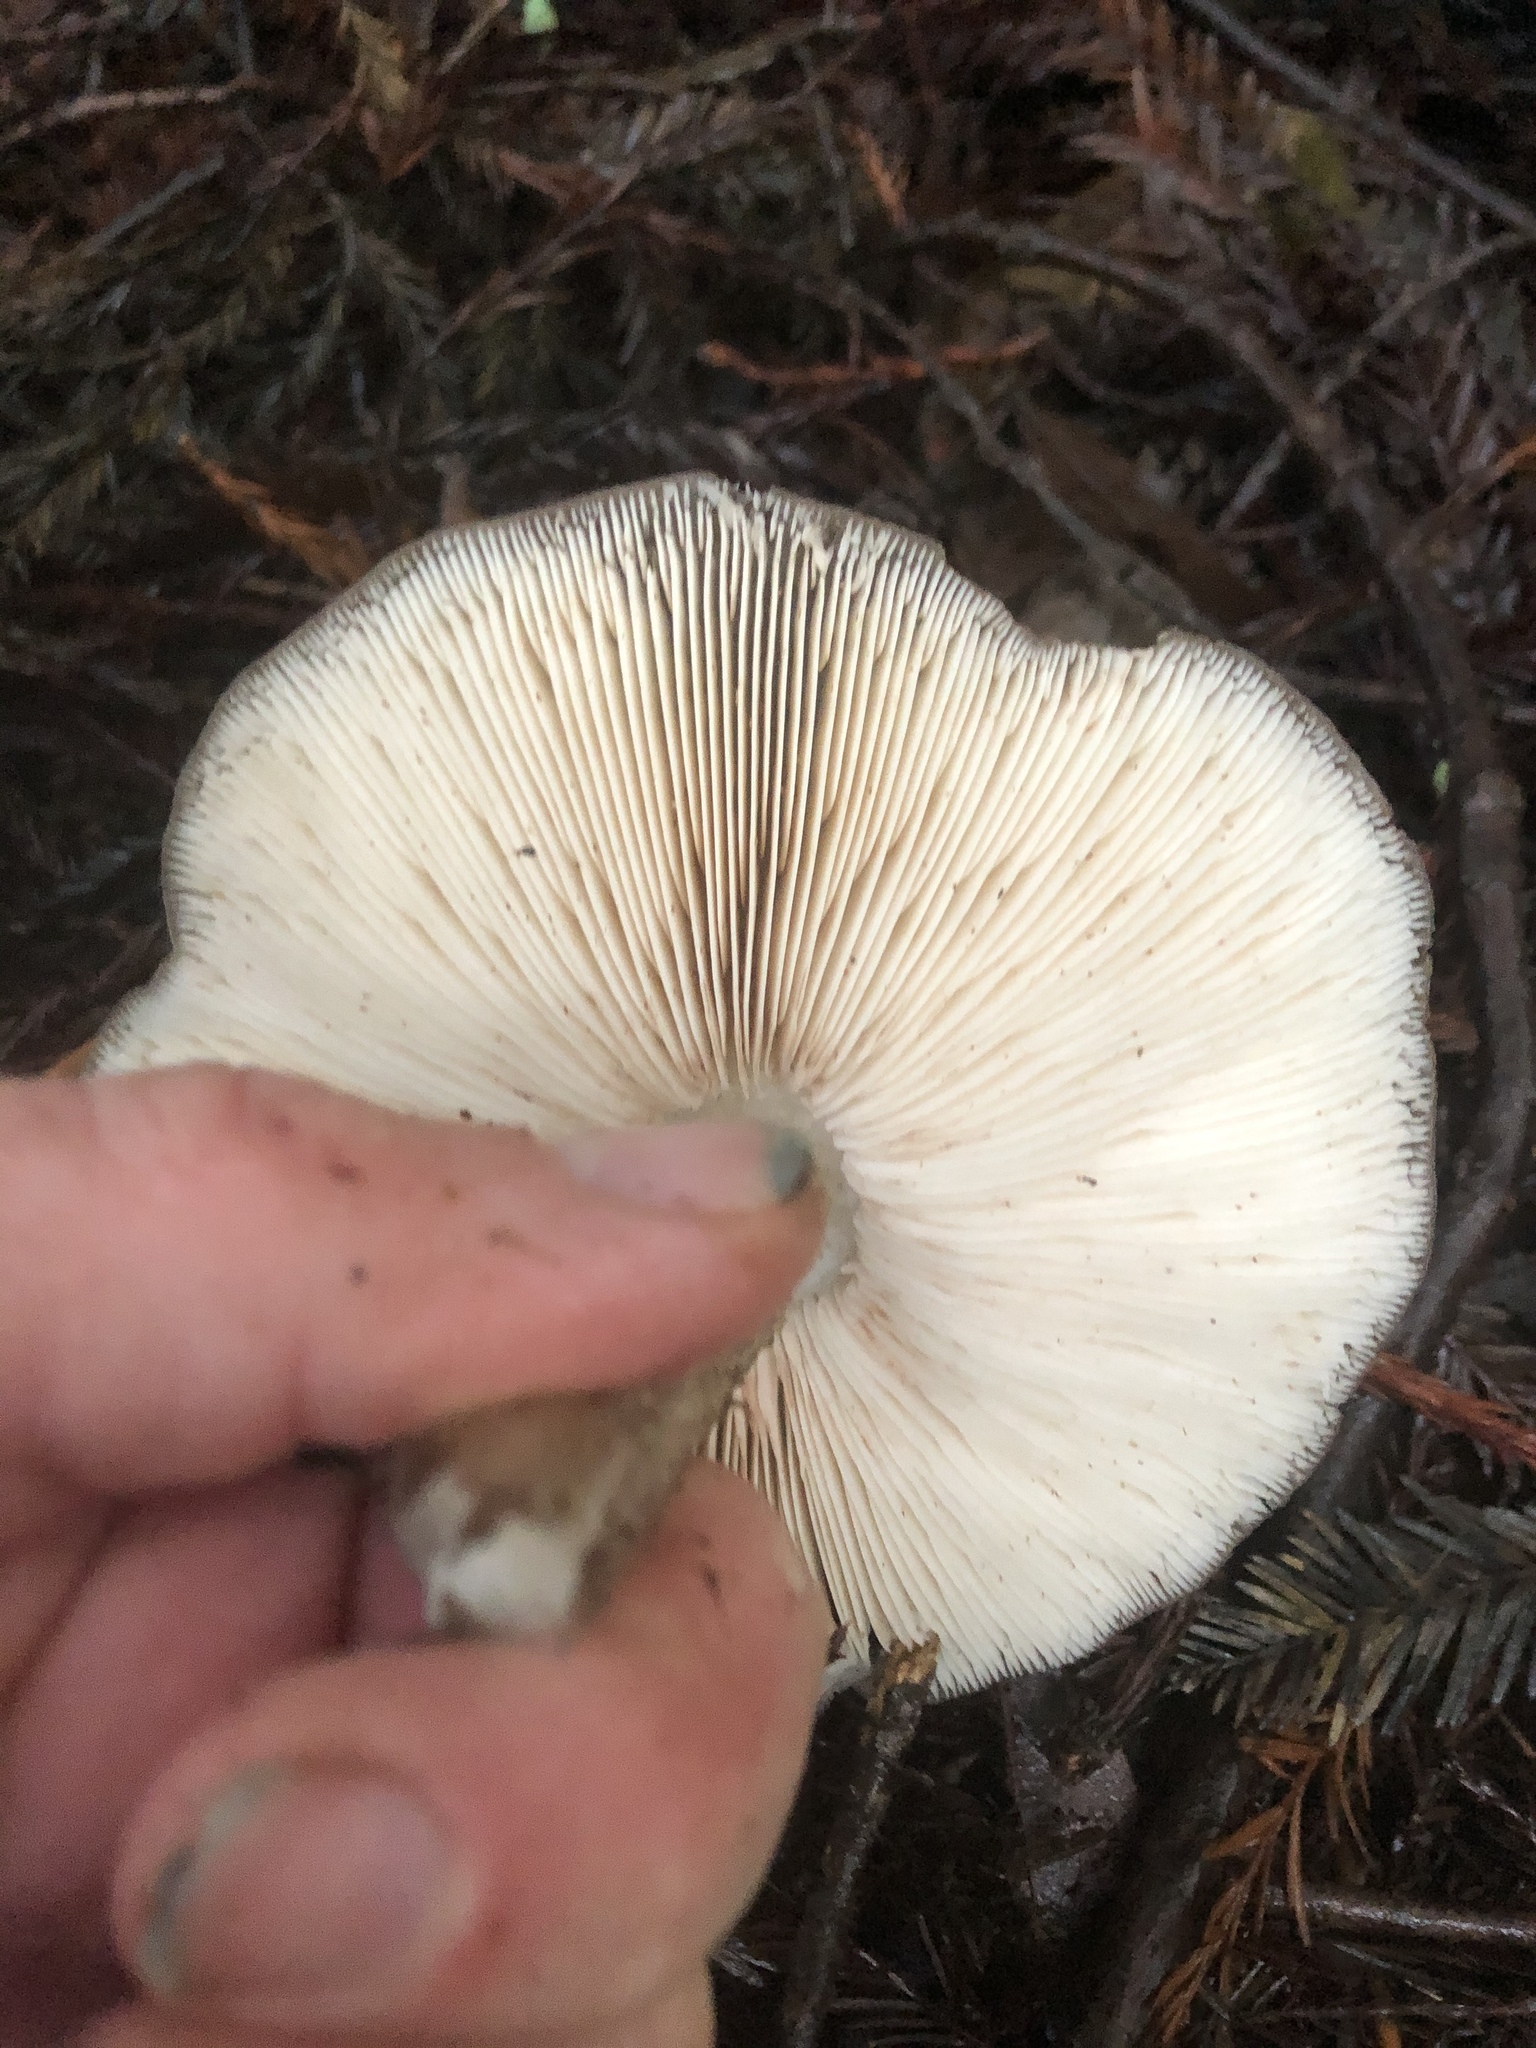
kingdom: Fungi
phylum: Basidiomycota
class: Agaricomycetes
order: Agaricales
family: Pluteaceae
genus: Pluteus
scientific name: Pluteus exilis
